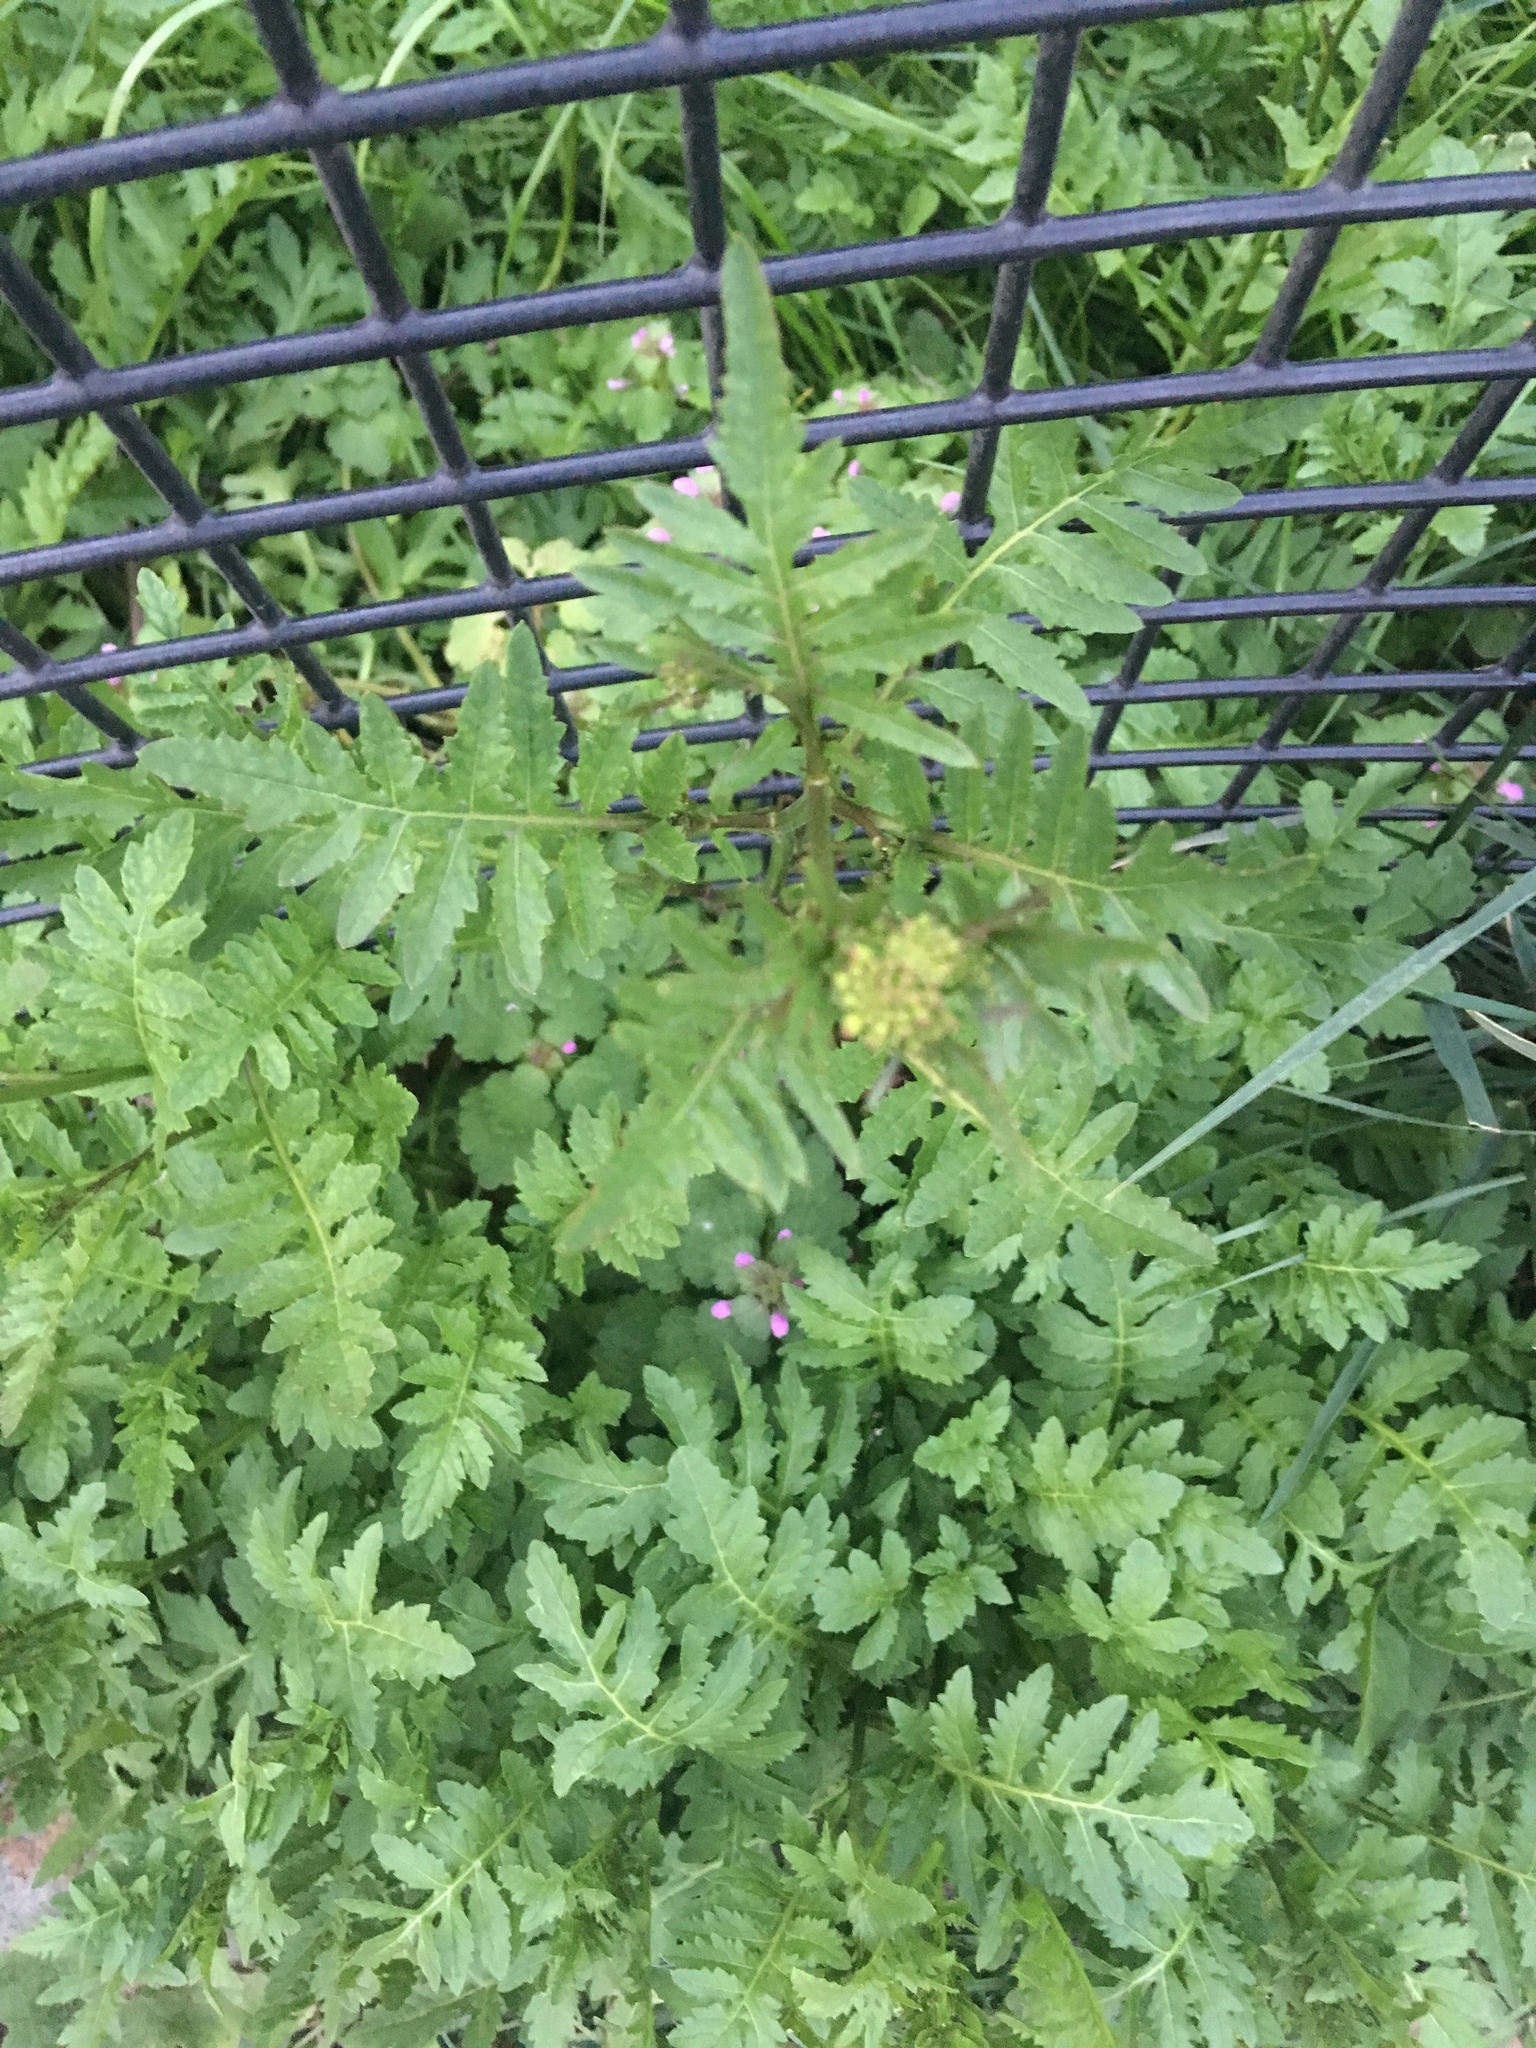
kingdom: Plantae
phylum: Tracheophyta
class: Magnoliopsida
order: Brassicales
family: Brassicaceae
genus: Rorippa
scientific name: Rorippa sylvestris
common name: Creeping yellowcress
